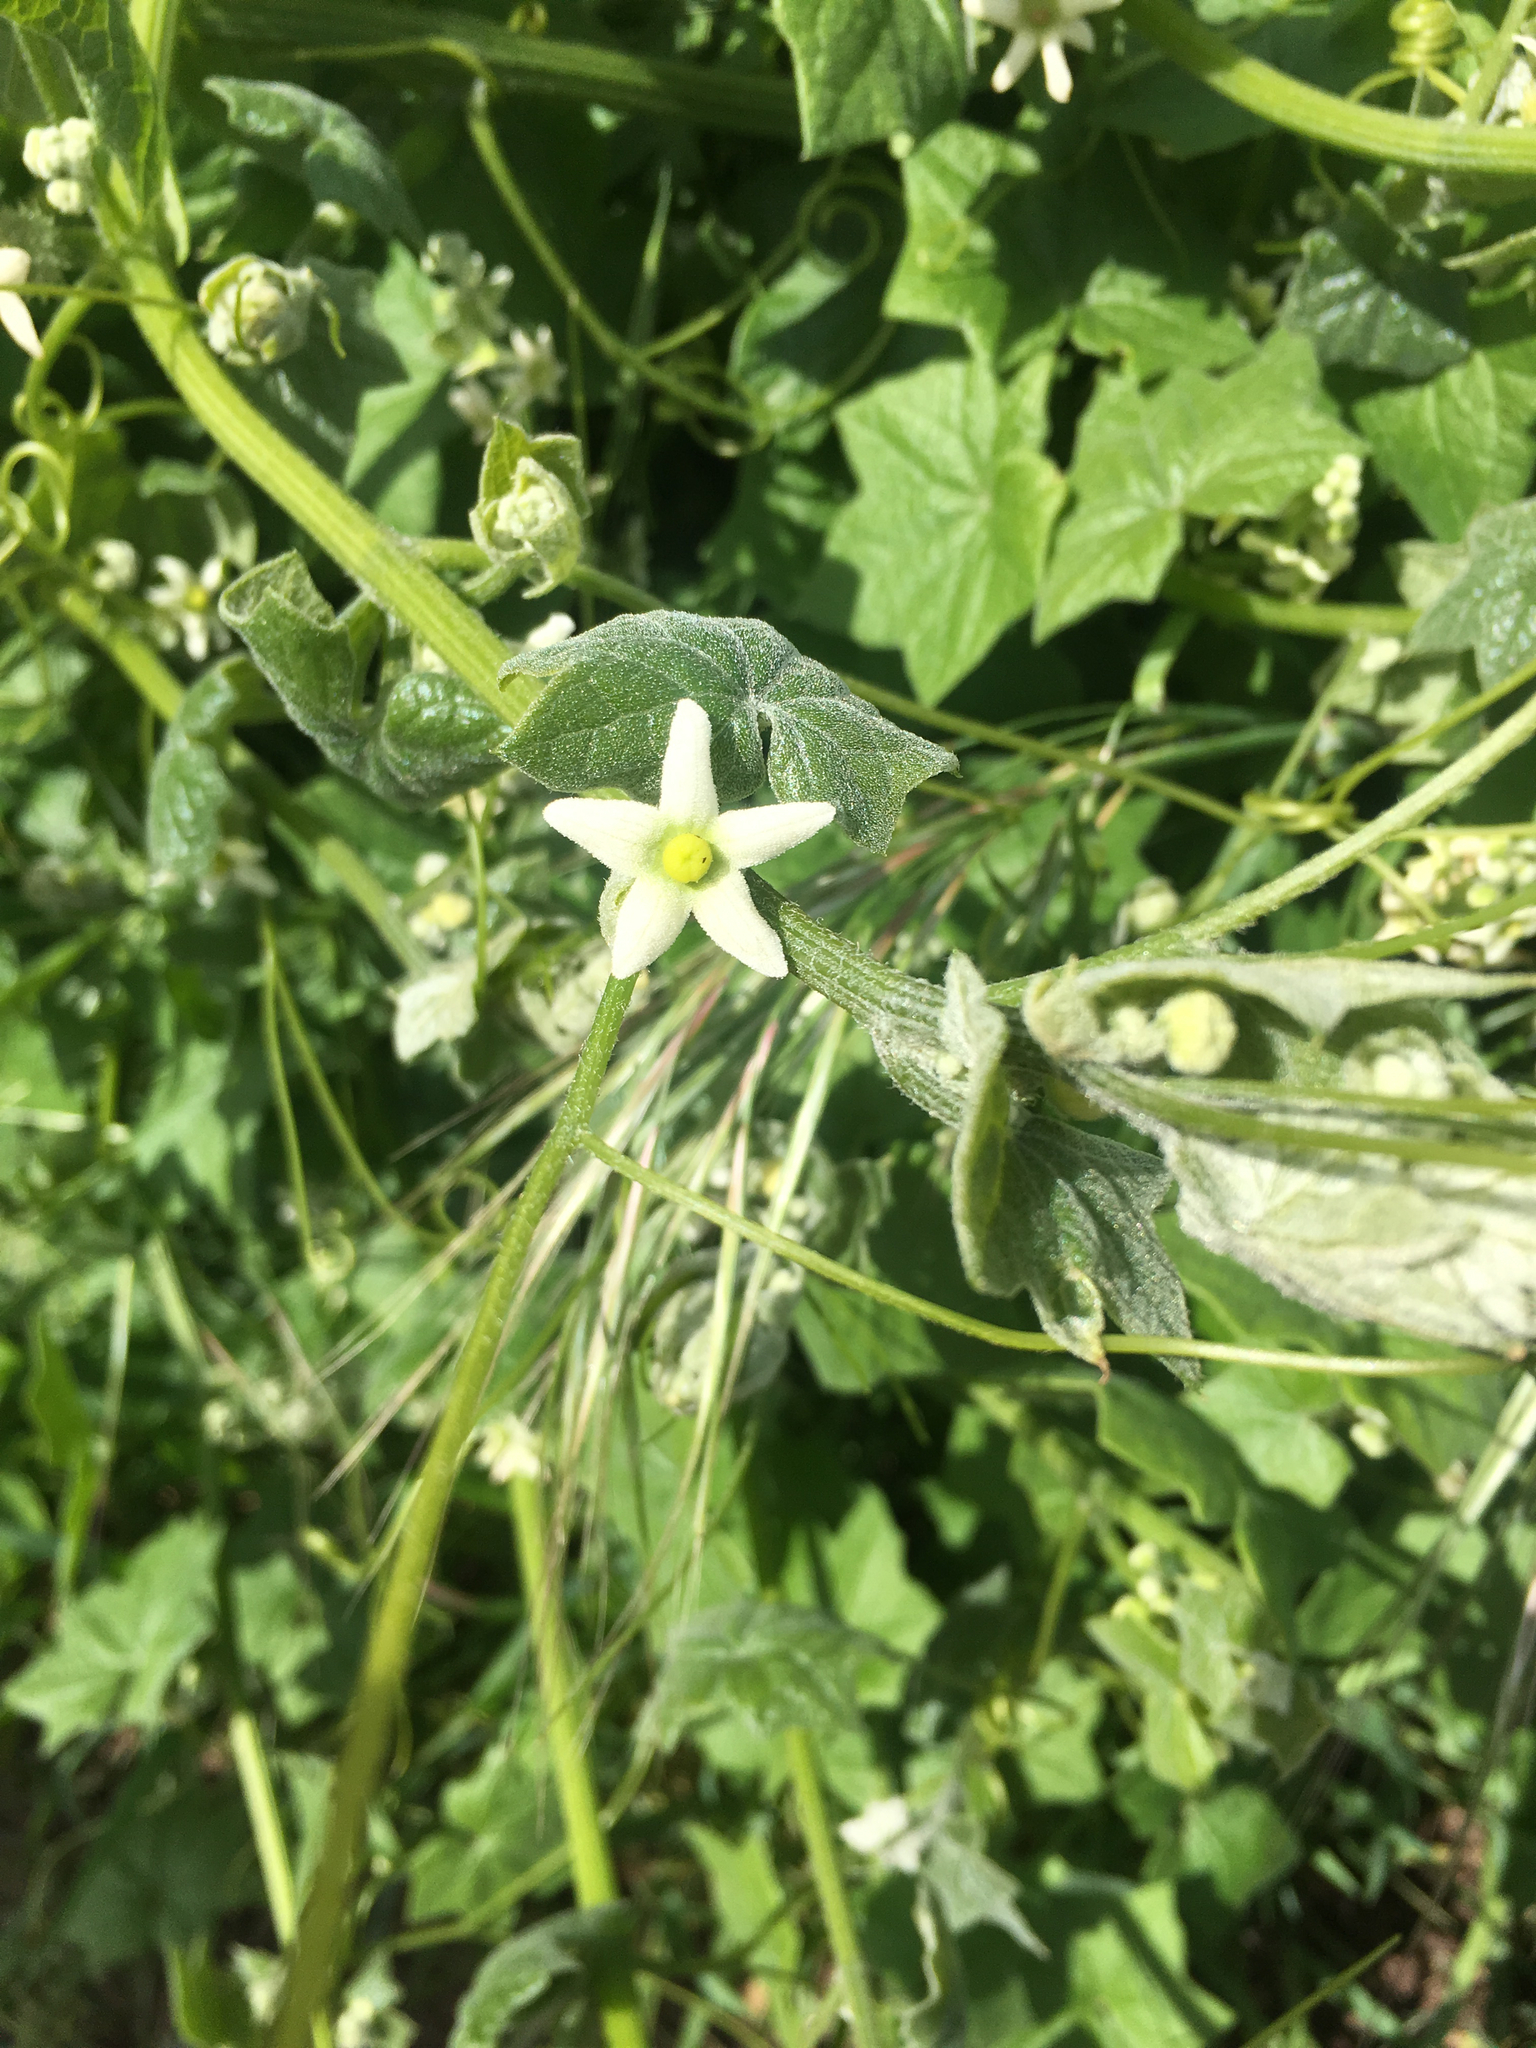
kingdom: Plantae
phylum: Tracheophyta
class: Magnoliopsida
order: Cucurbitales
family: Cucurbitaceae
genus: Marah
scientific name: Marah fabacea
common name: California manroot
